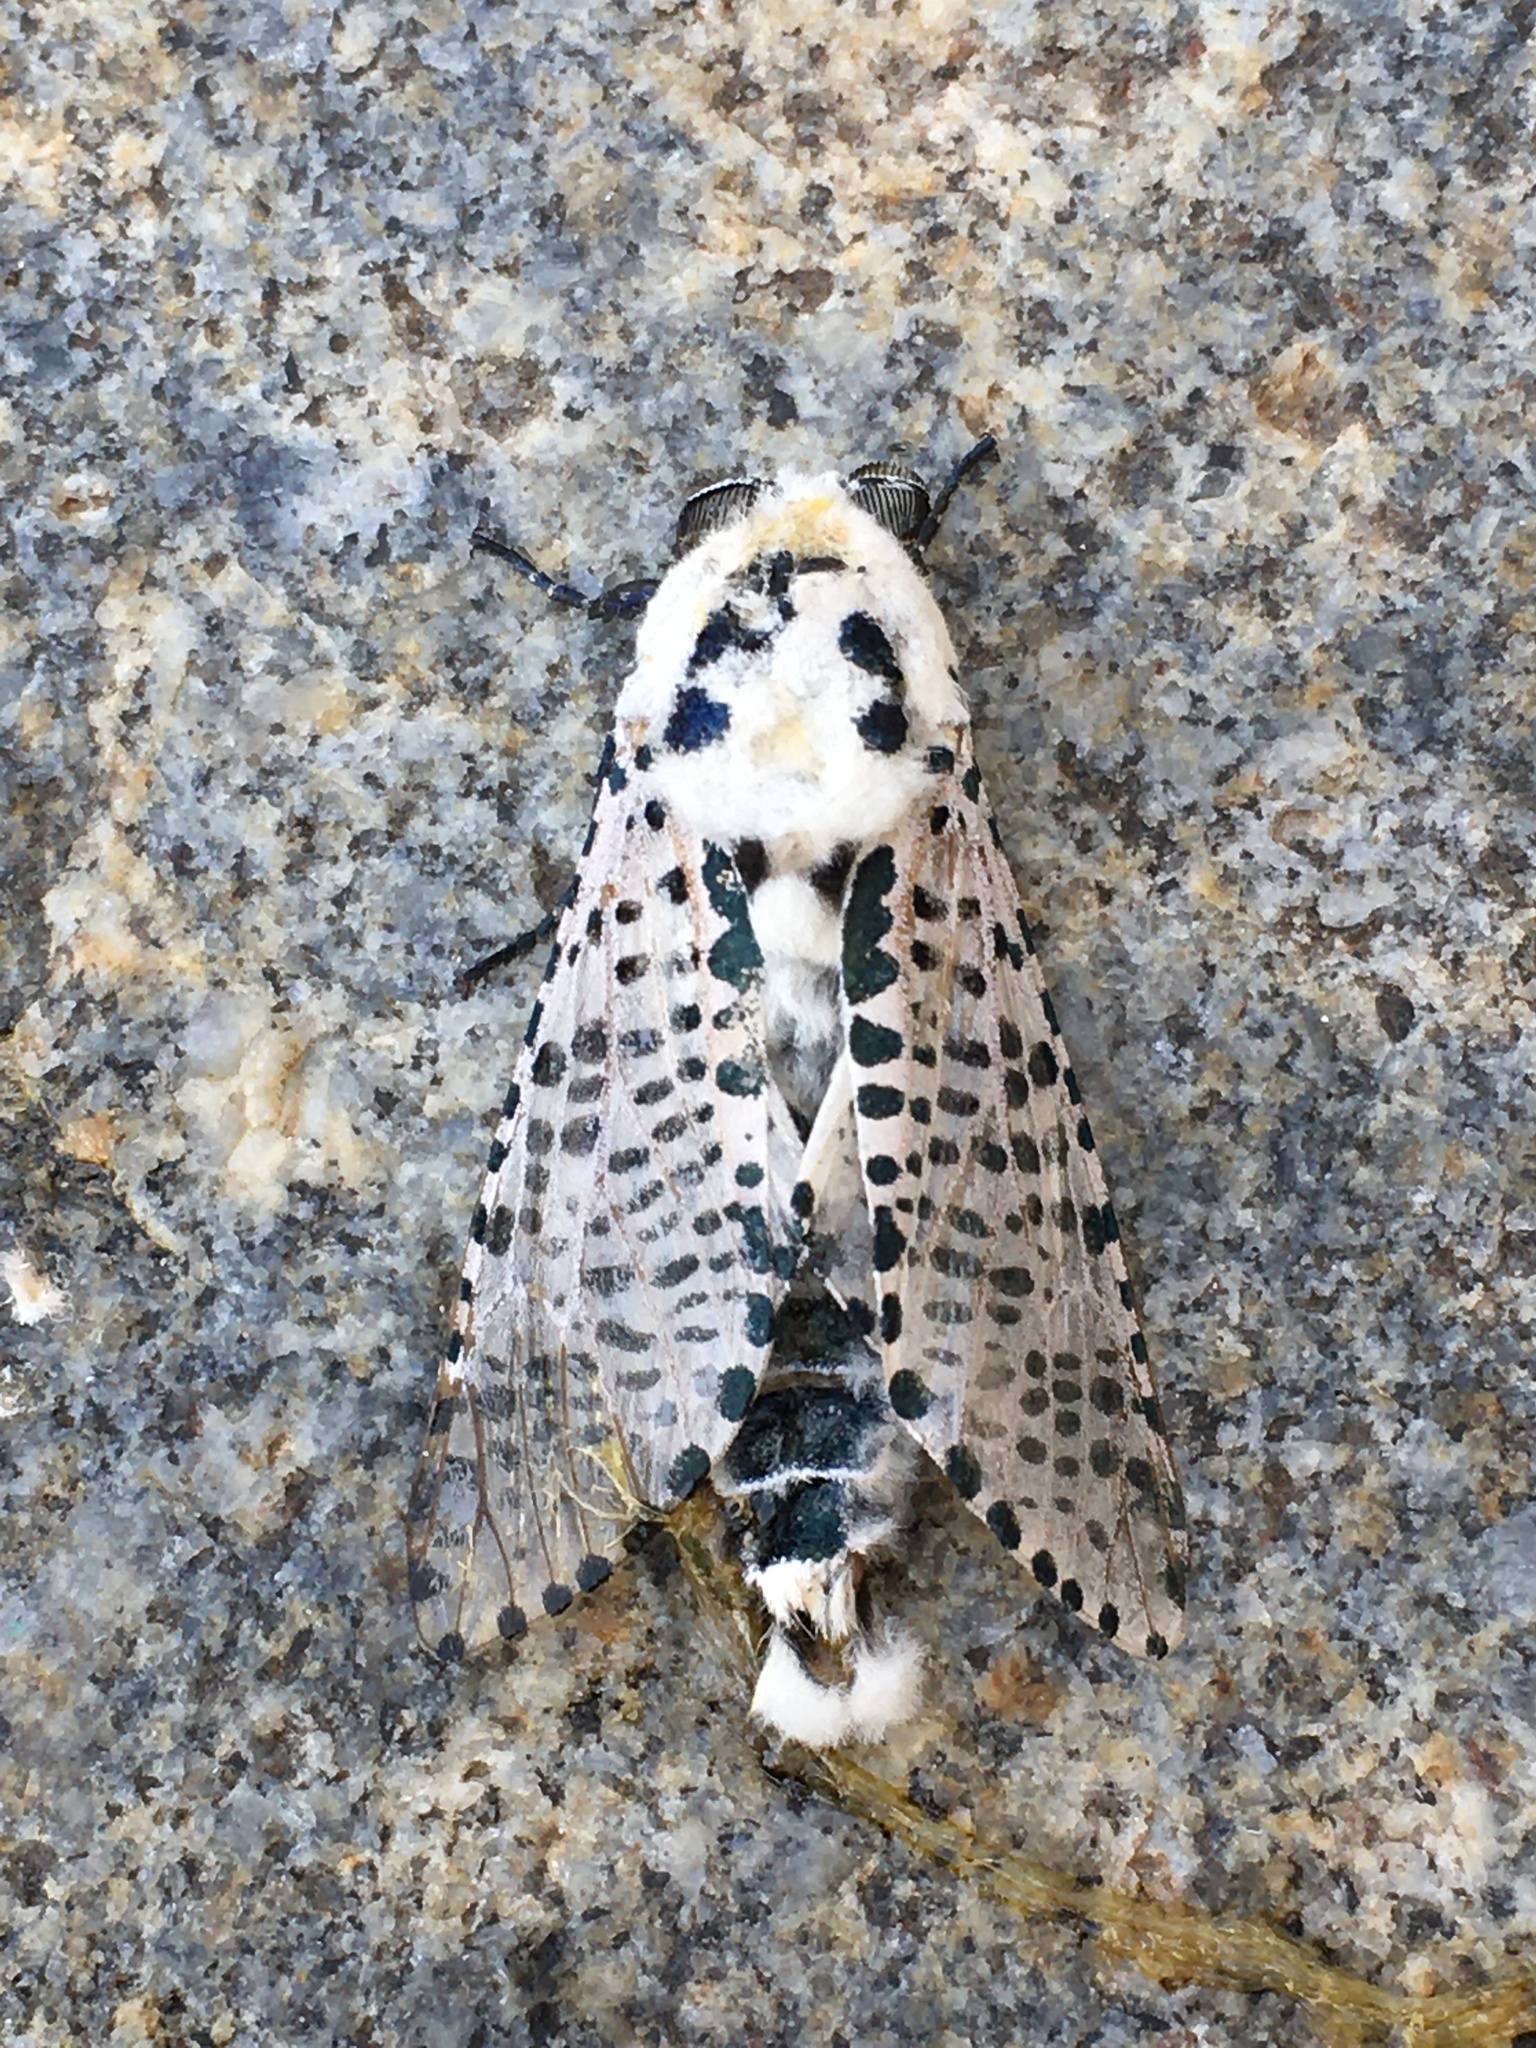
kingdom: Animalia
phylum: Arthropoda
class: Insecta
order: Lepidoptera
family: Cossidae
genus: Zeuzera
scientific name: Zeuzera pyrina
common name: Leopard moth
